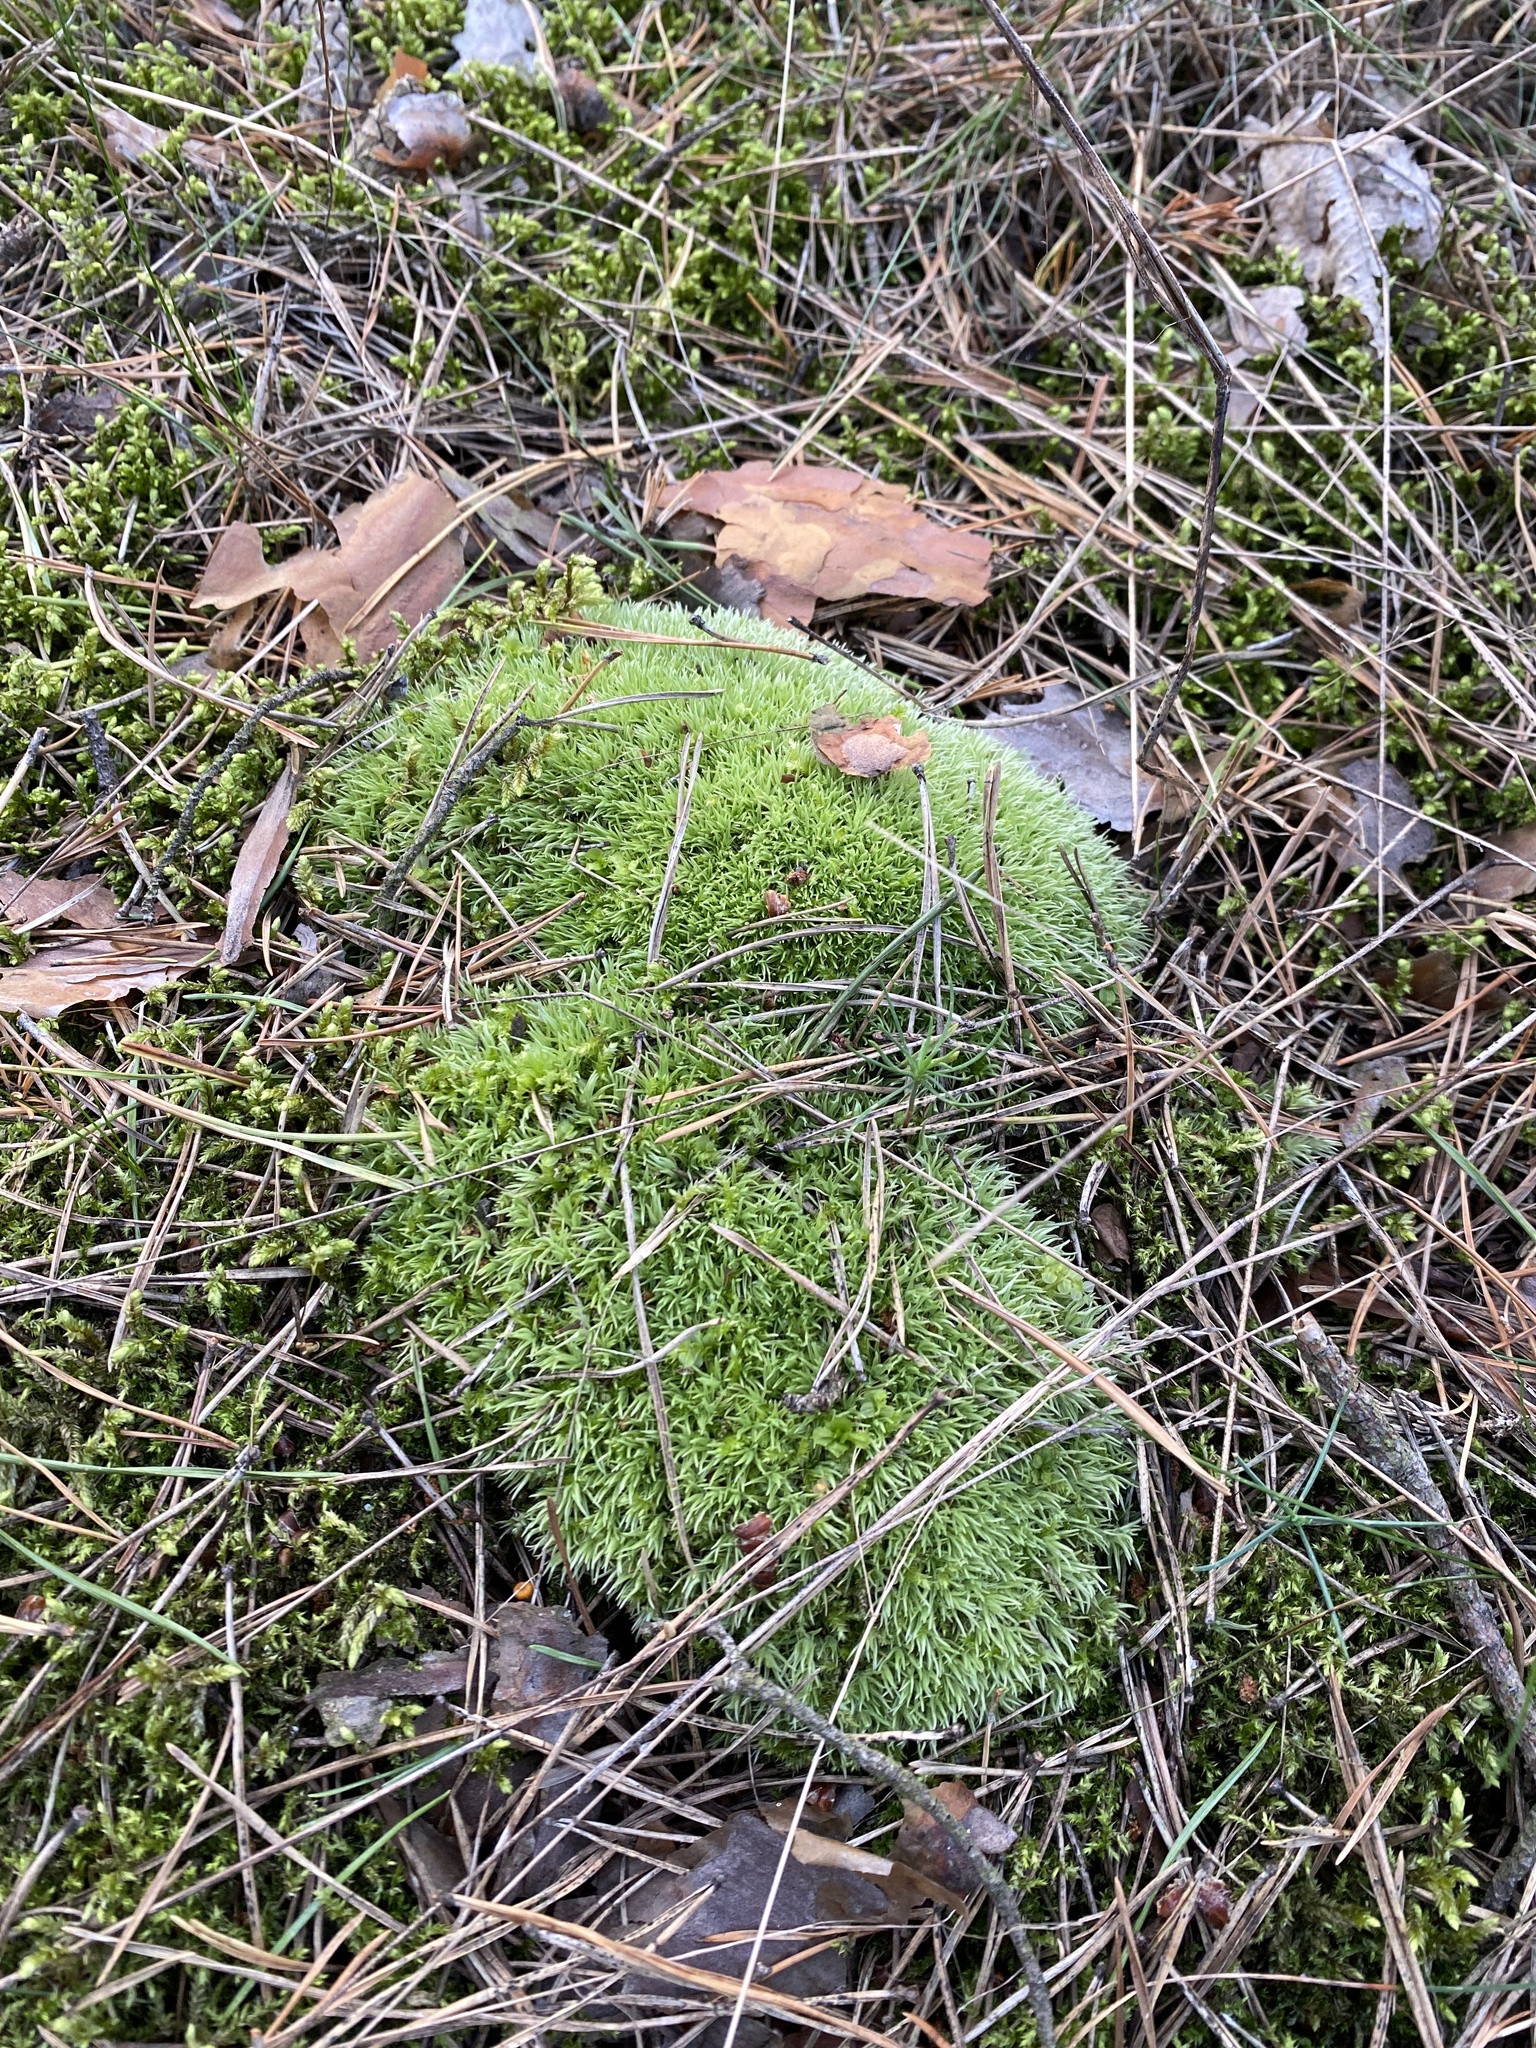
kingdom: Plantae
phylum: Bryophyta
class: Bryopsida
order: Dicranales
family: Leucobryaceae
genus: Leucobryum
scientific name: Leucobryum glaucum
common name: Large white-moss
